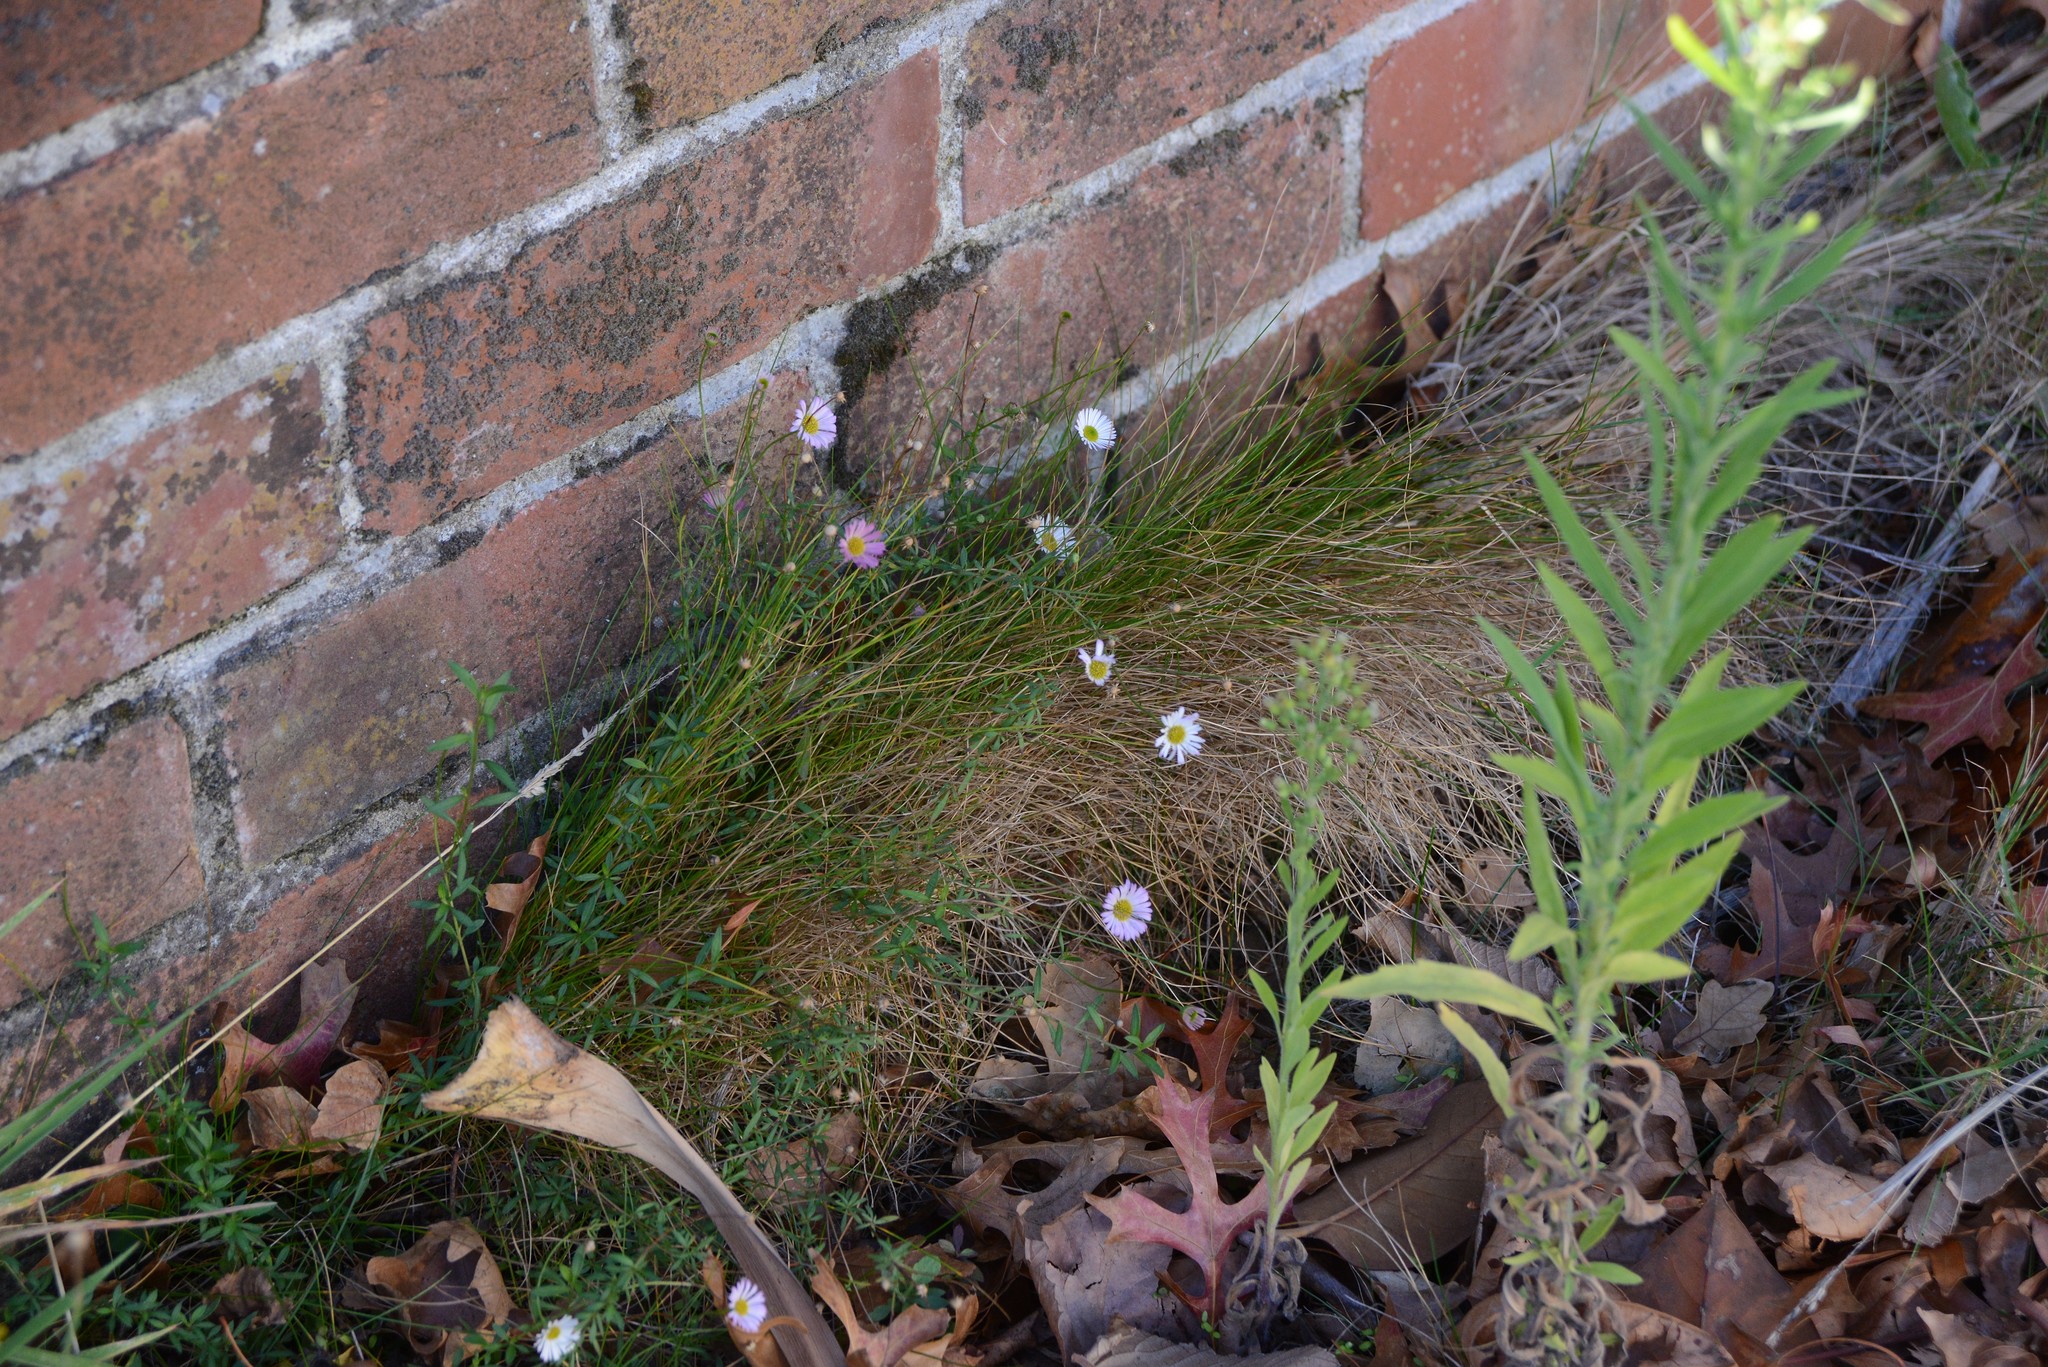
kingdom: Plantae
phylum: Tracheophyta
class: Magnoliopsida
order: Asterales
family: Asteraceae
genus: Erigeron
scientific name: Erigeron karvinskianus
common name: Mexican fleabane
